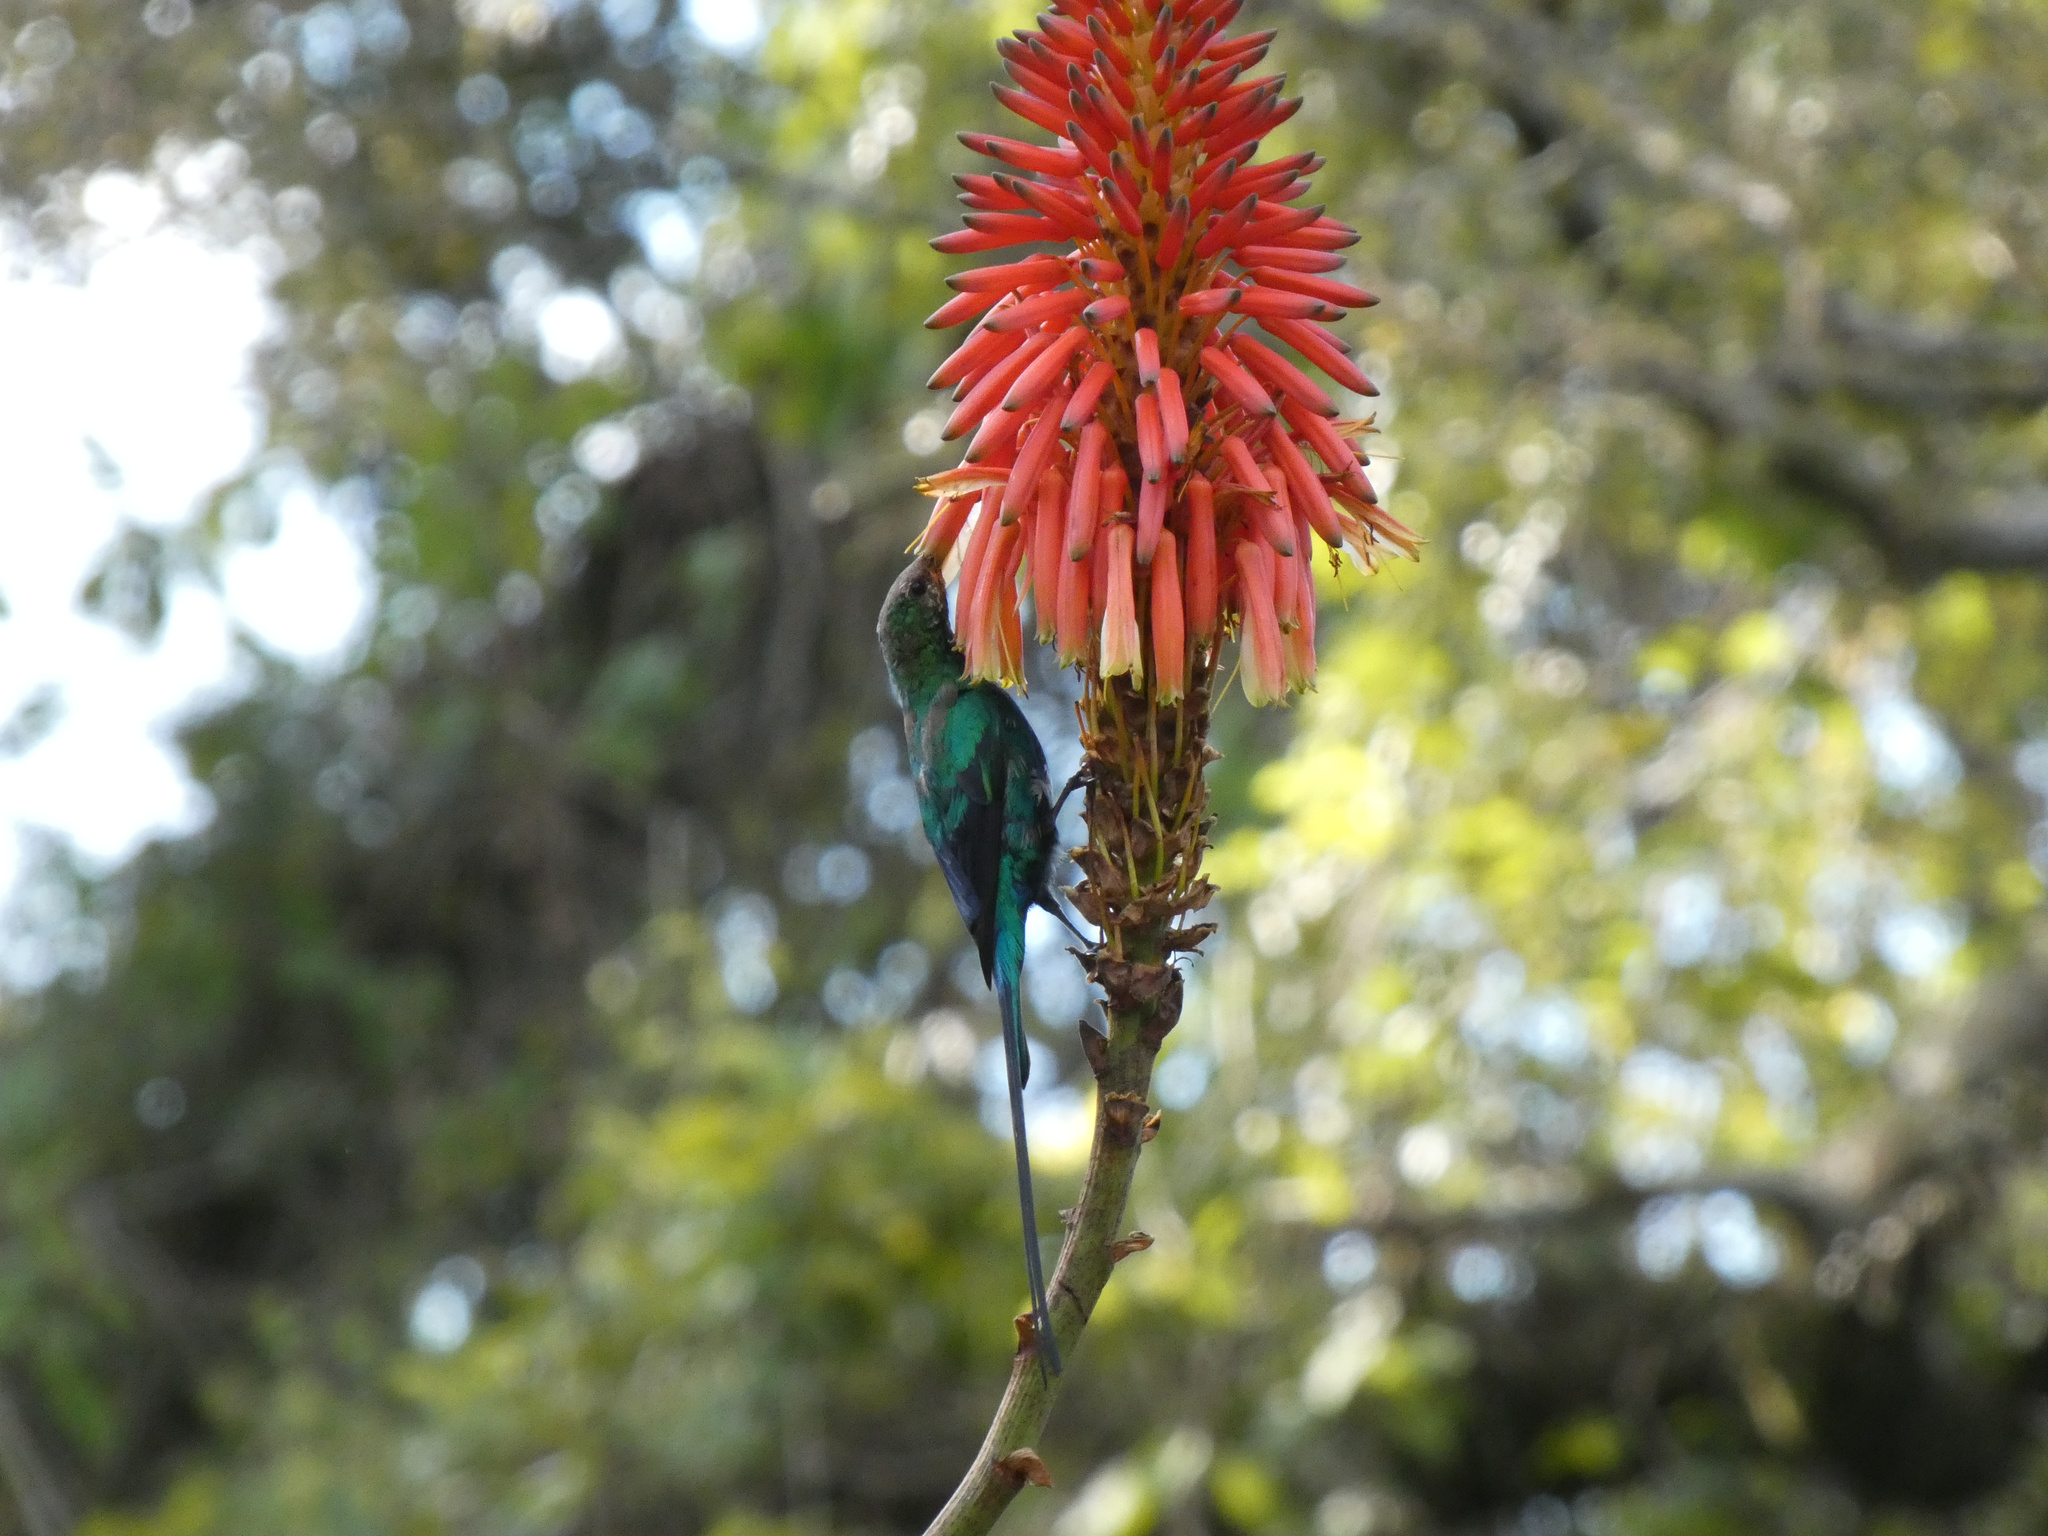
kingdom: Animalia
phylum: Chordata
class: Aves
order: Passeriformes
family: Nectariniidae
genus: Nectarinia
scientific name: Nectarinia famosa
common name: Malachite sunbird
